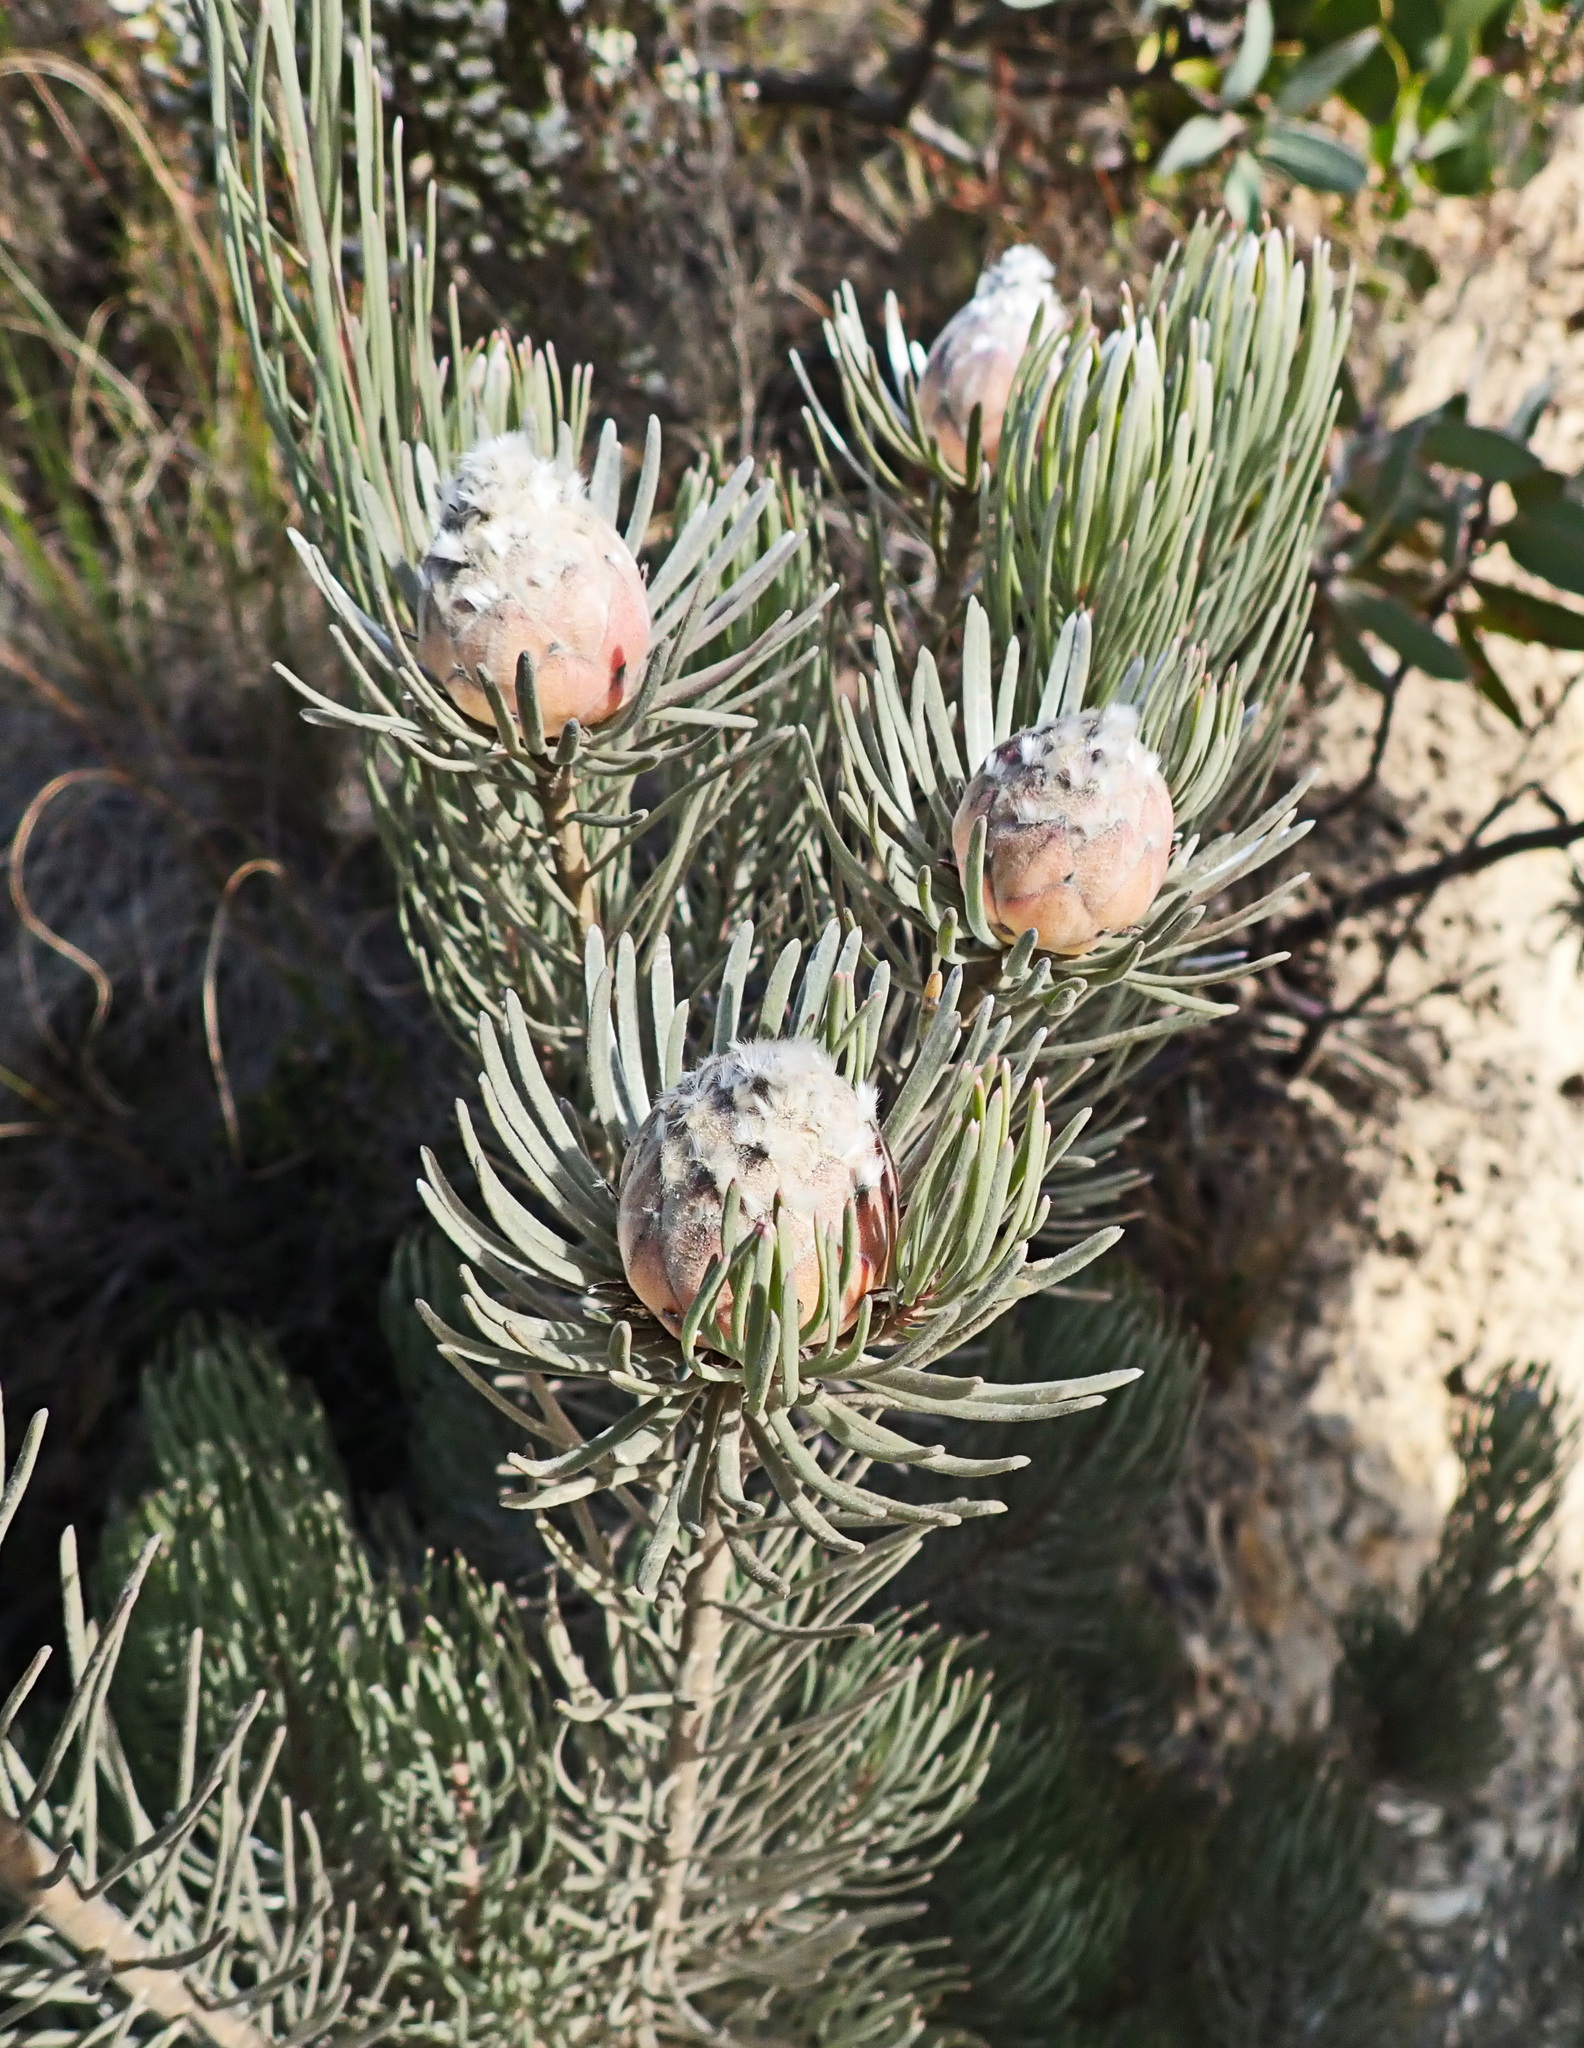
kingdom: Plantae
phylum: Tracheophyta
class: Magnoliopsida
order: Proteales
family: Proteaceae
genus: Leucadendron
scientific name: Leucadendron album
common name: Linear-leaf conebush
